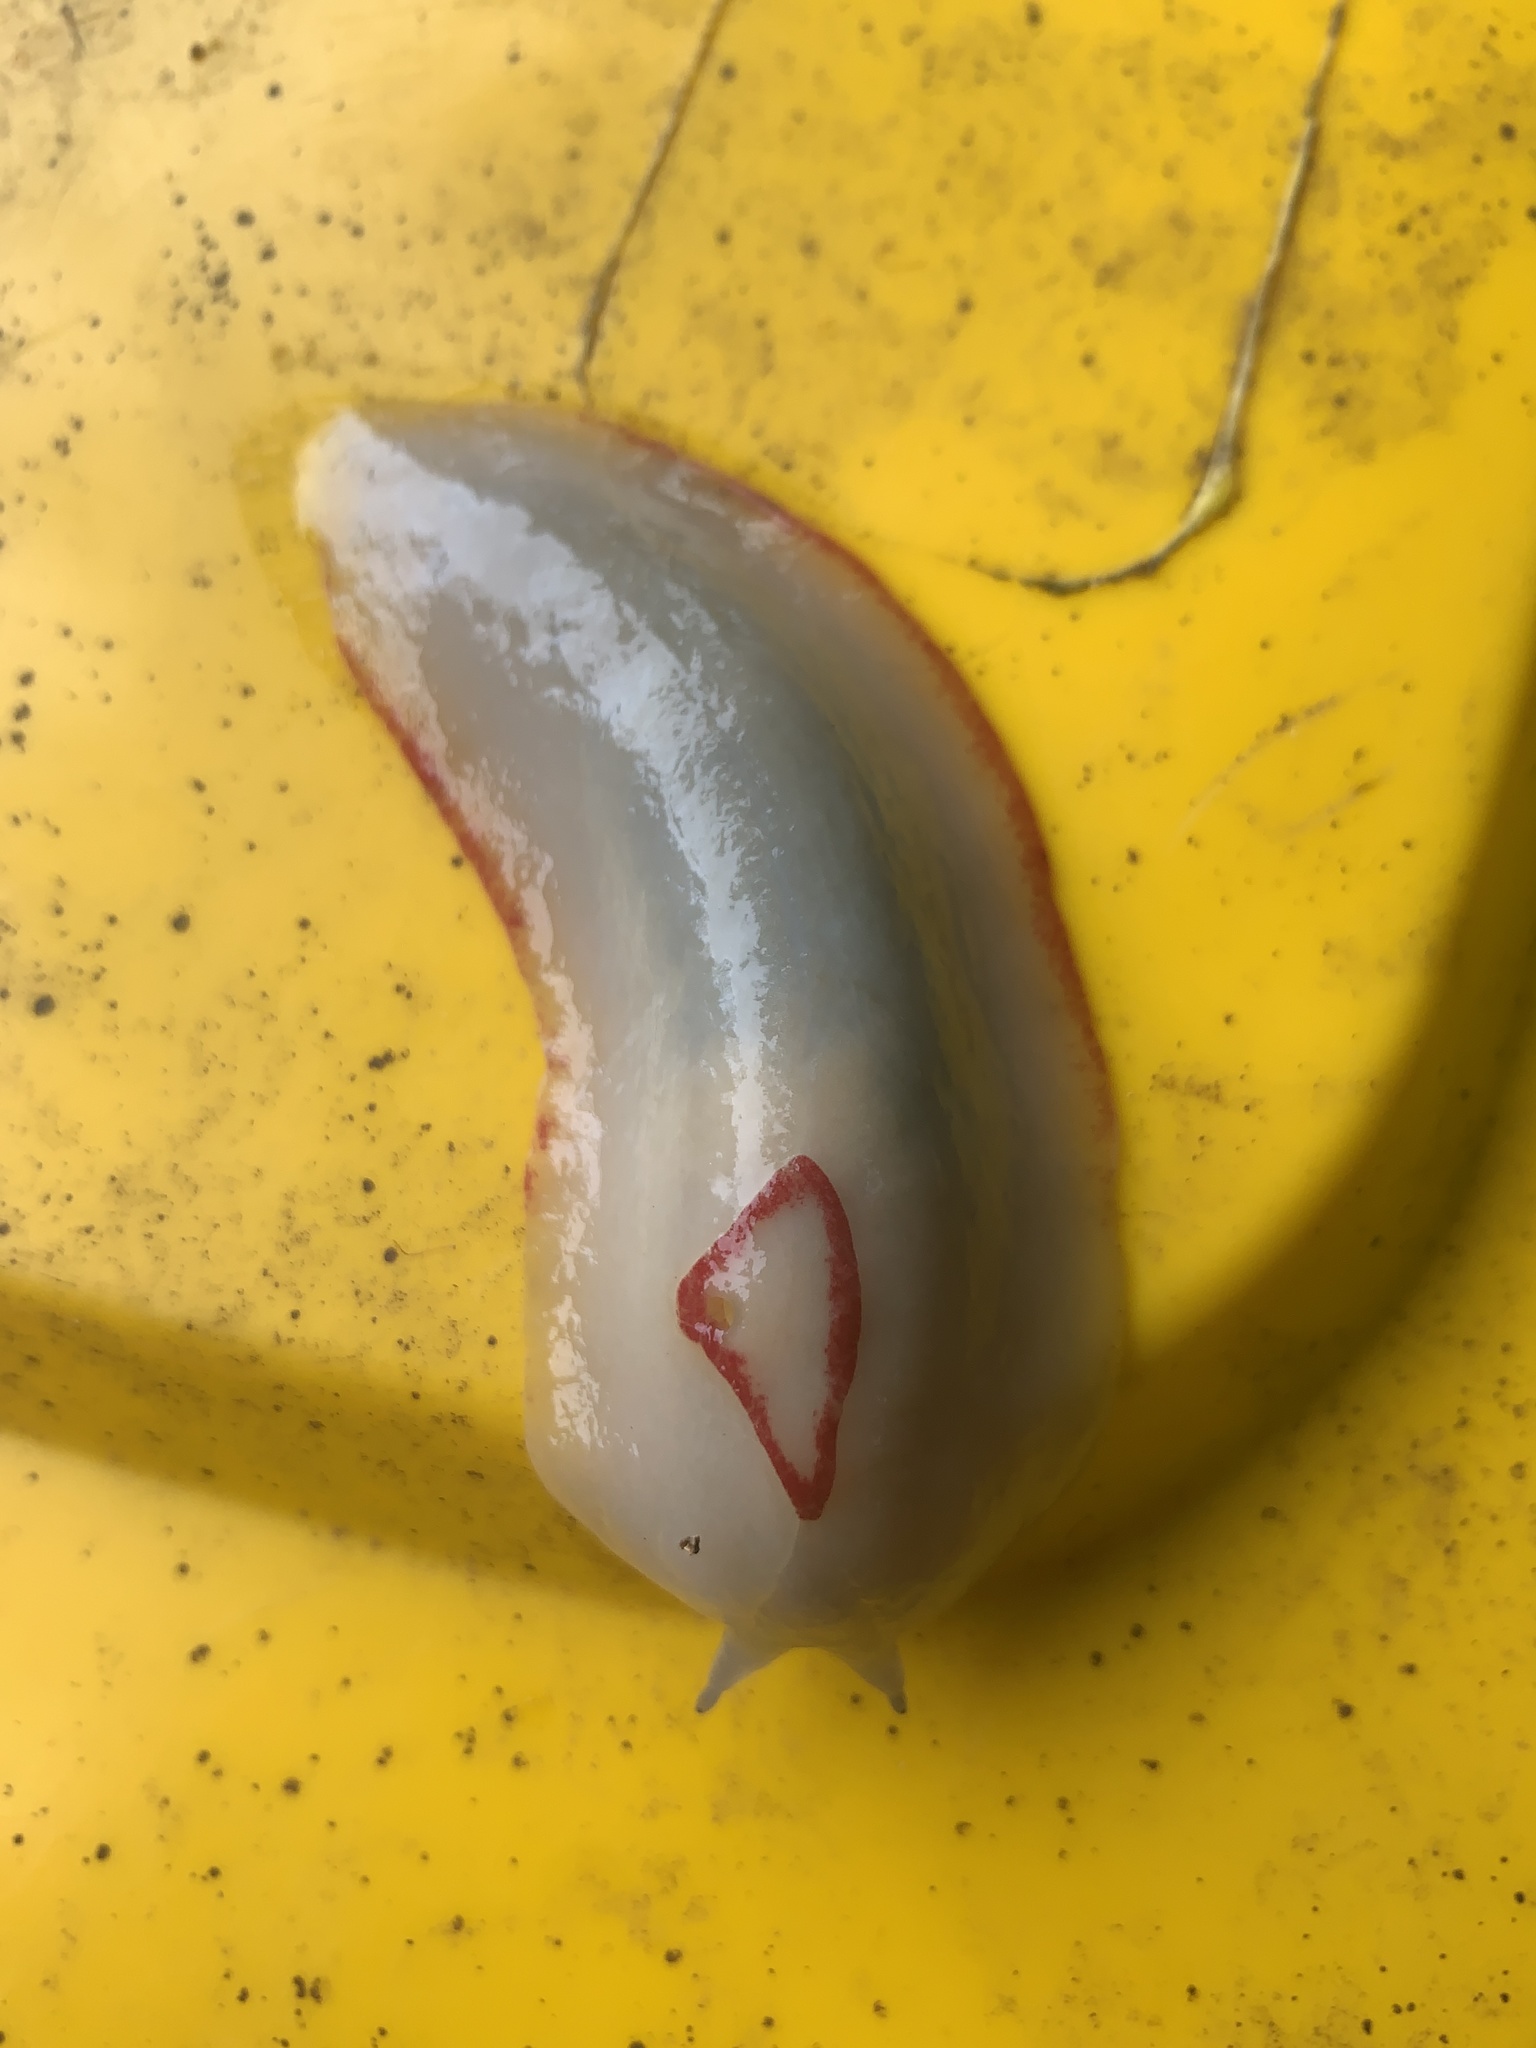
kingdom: Animalia
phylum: Mollusca
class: Gastropoda
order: Stylommatophora
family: Athoracophoridae
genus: Triboniophorus
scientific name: Triboniophorus graeffei
